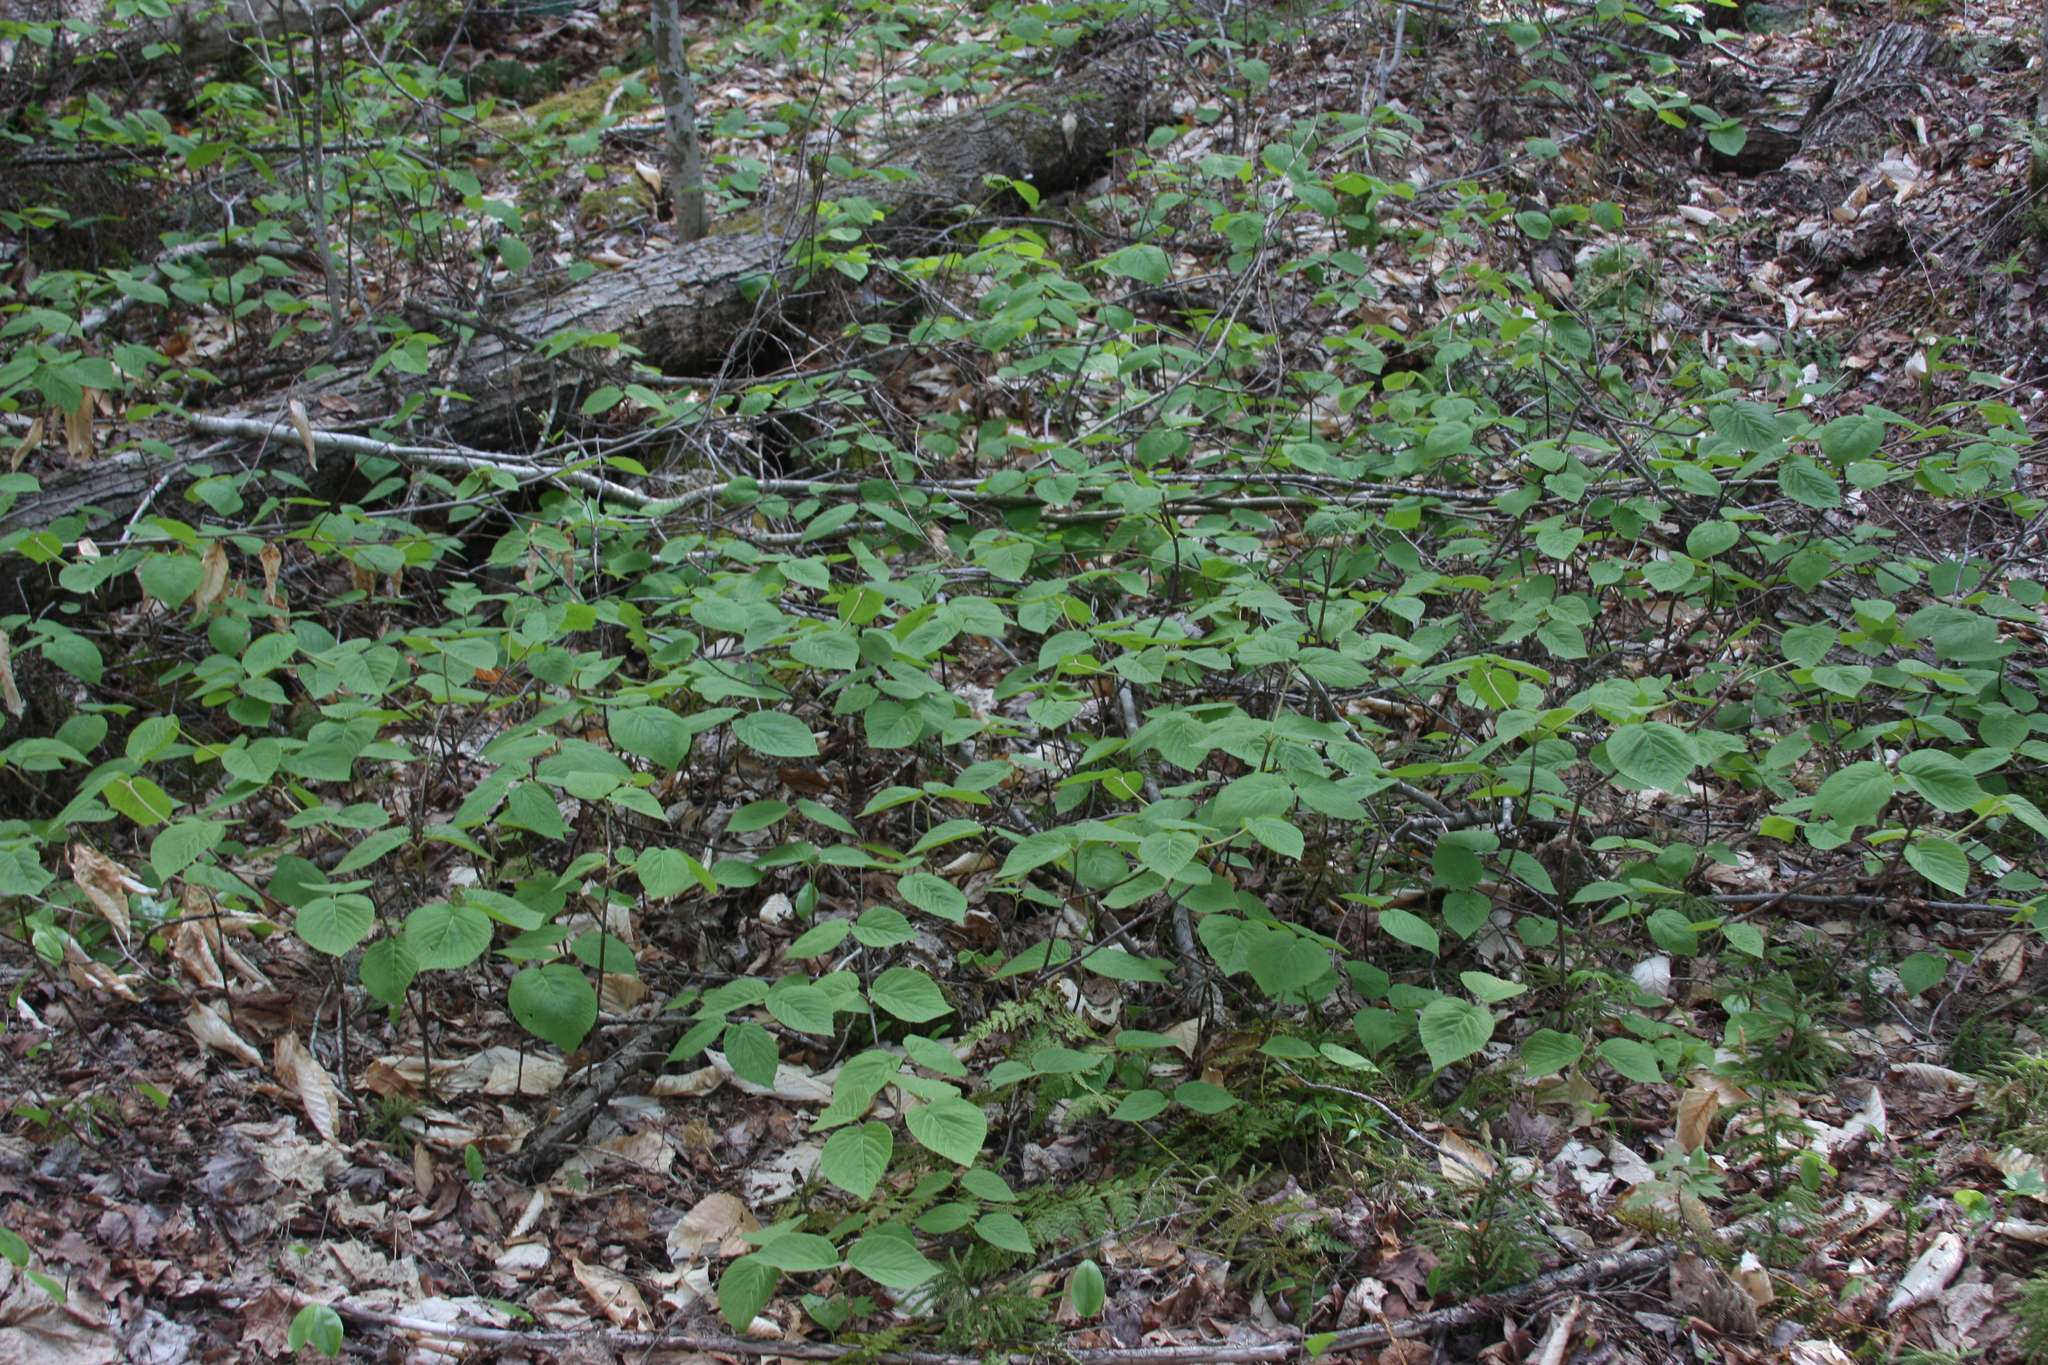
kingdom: Plantae
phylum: Tracheophyta
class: Magnoliopsida
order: Dipsacales
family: Viburnaceae
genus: Viburnum
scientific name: Viburnum lantanoides
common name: Hobblebush
